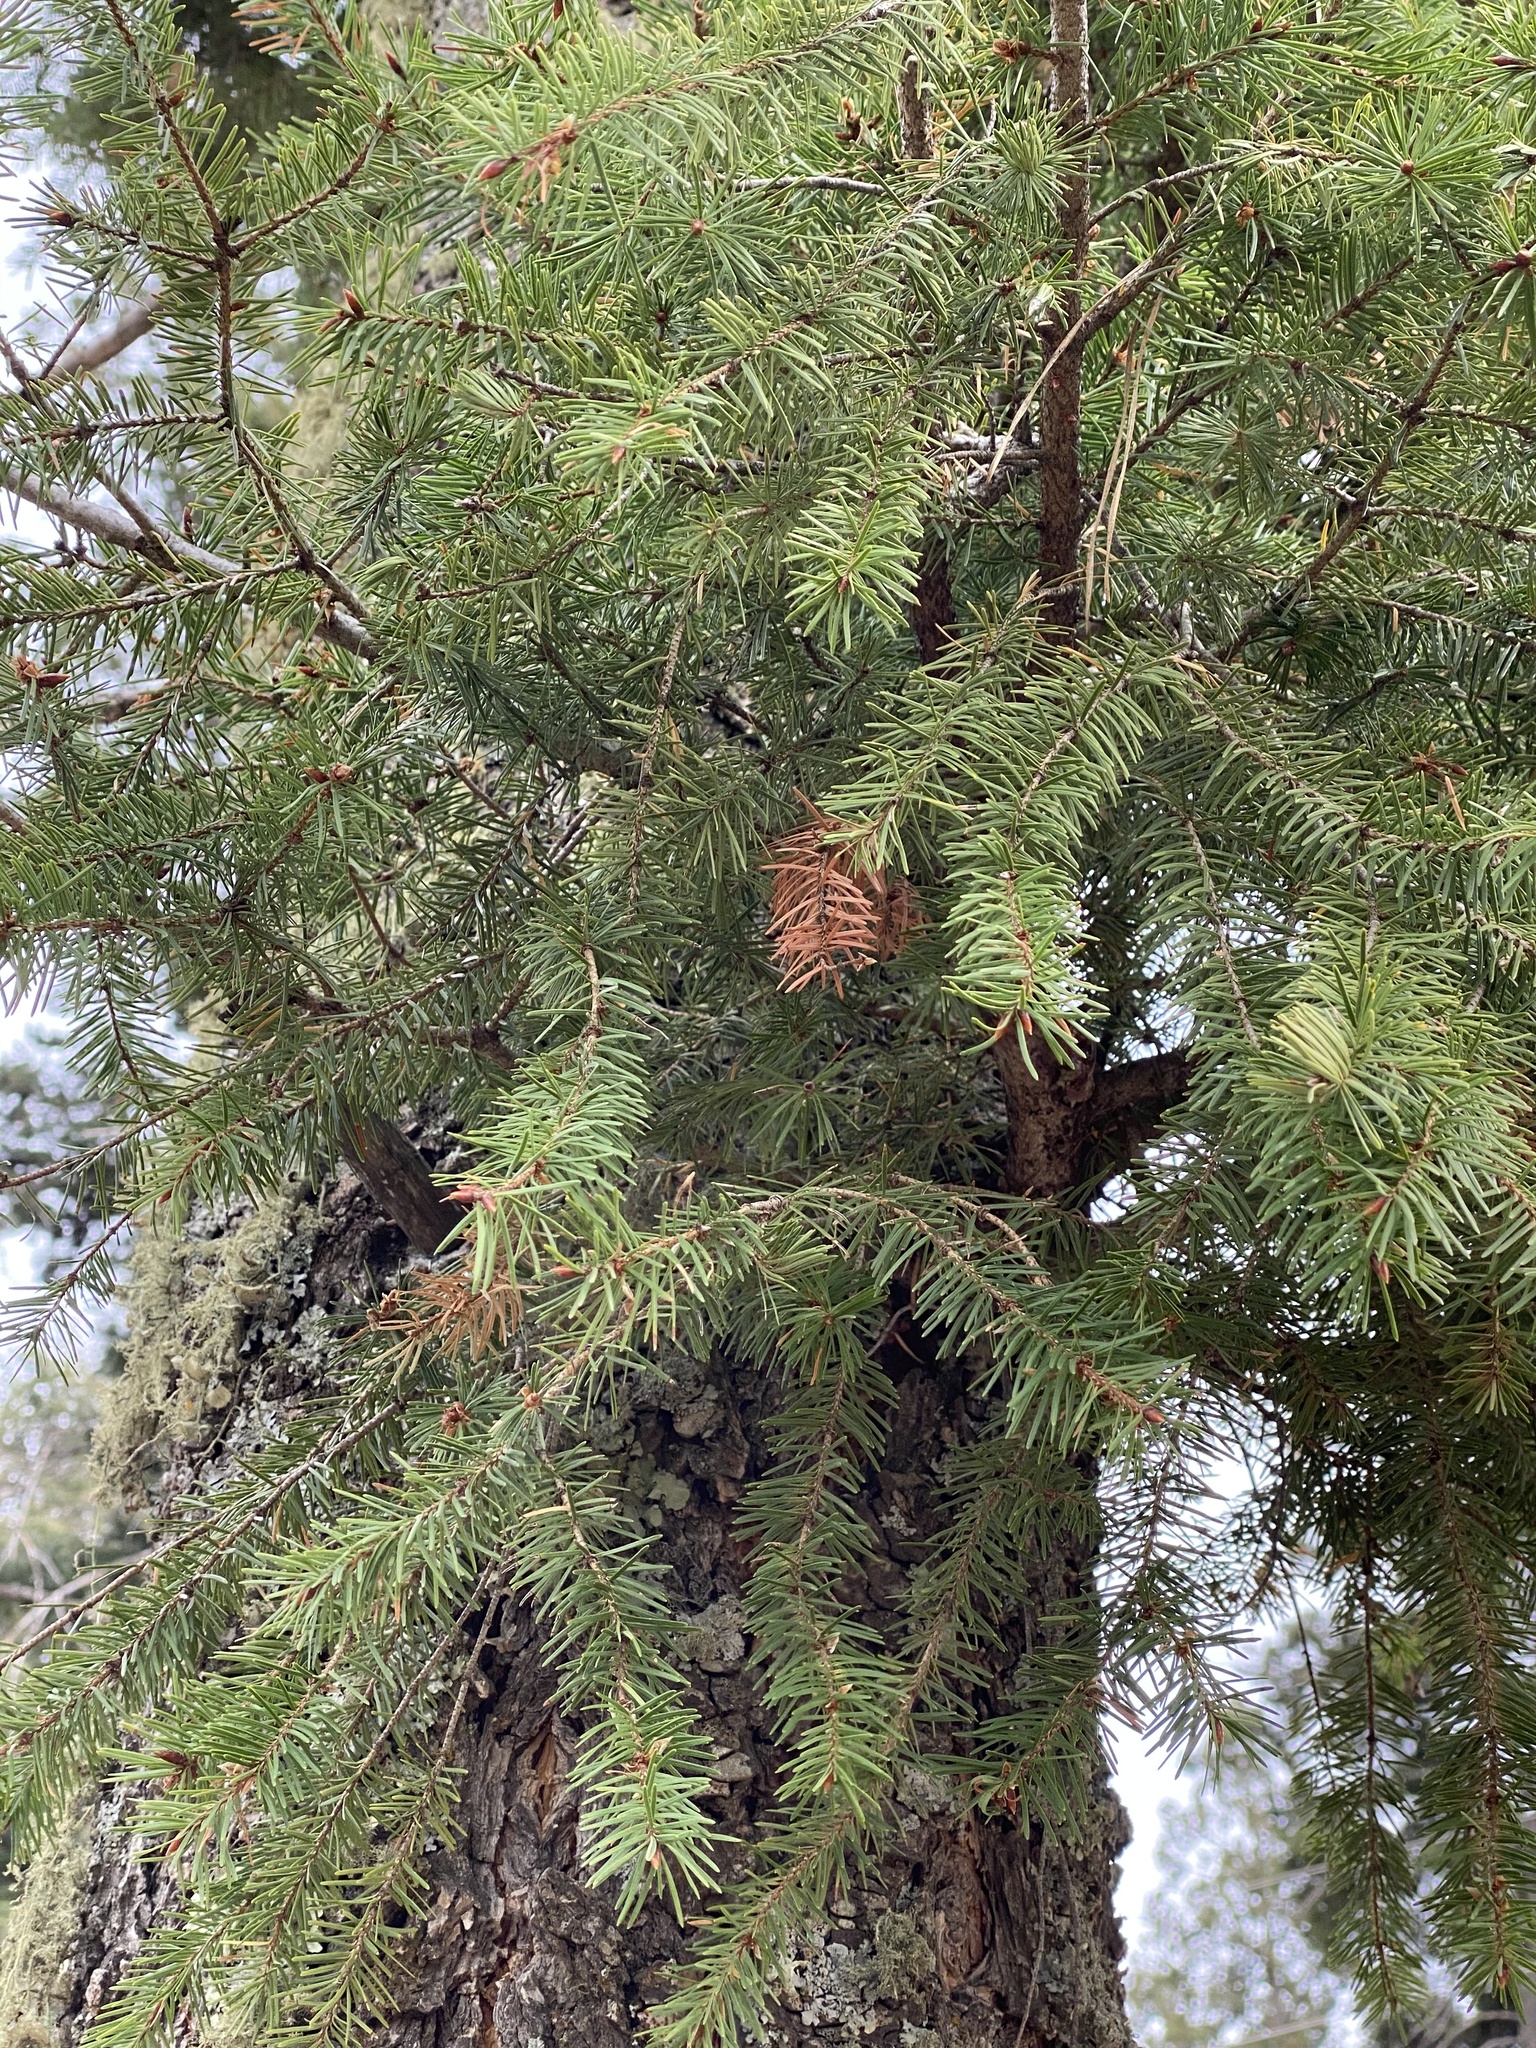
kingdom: Plantae
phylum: Tracheophyta
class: Pinopsida
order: Pinales
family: Pinaceae
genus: Pseudotsuga
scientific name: Pseudotsuga menziesii
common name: Douglas fir
